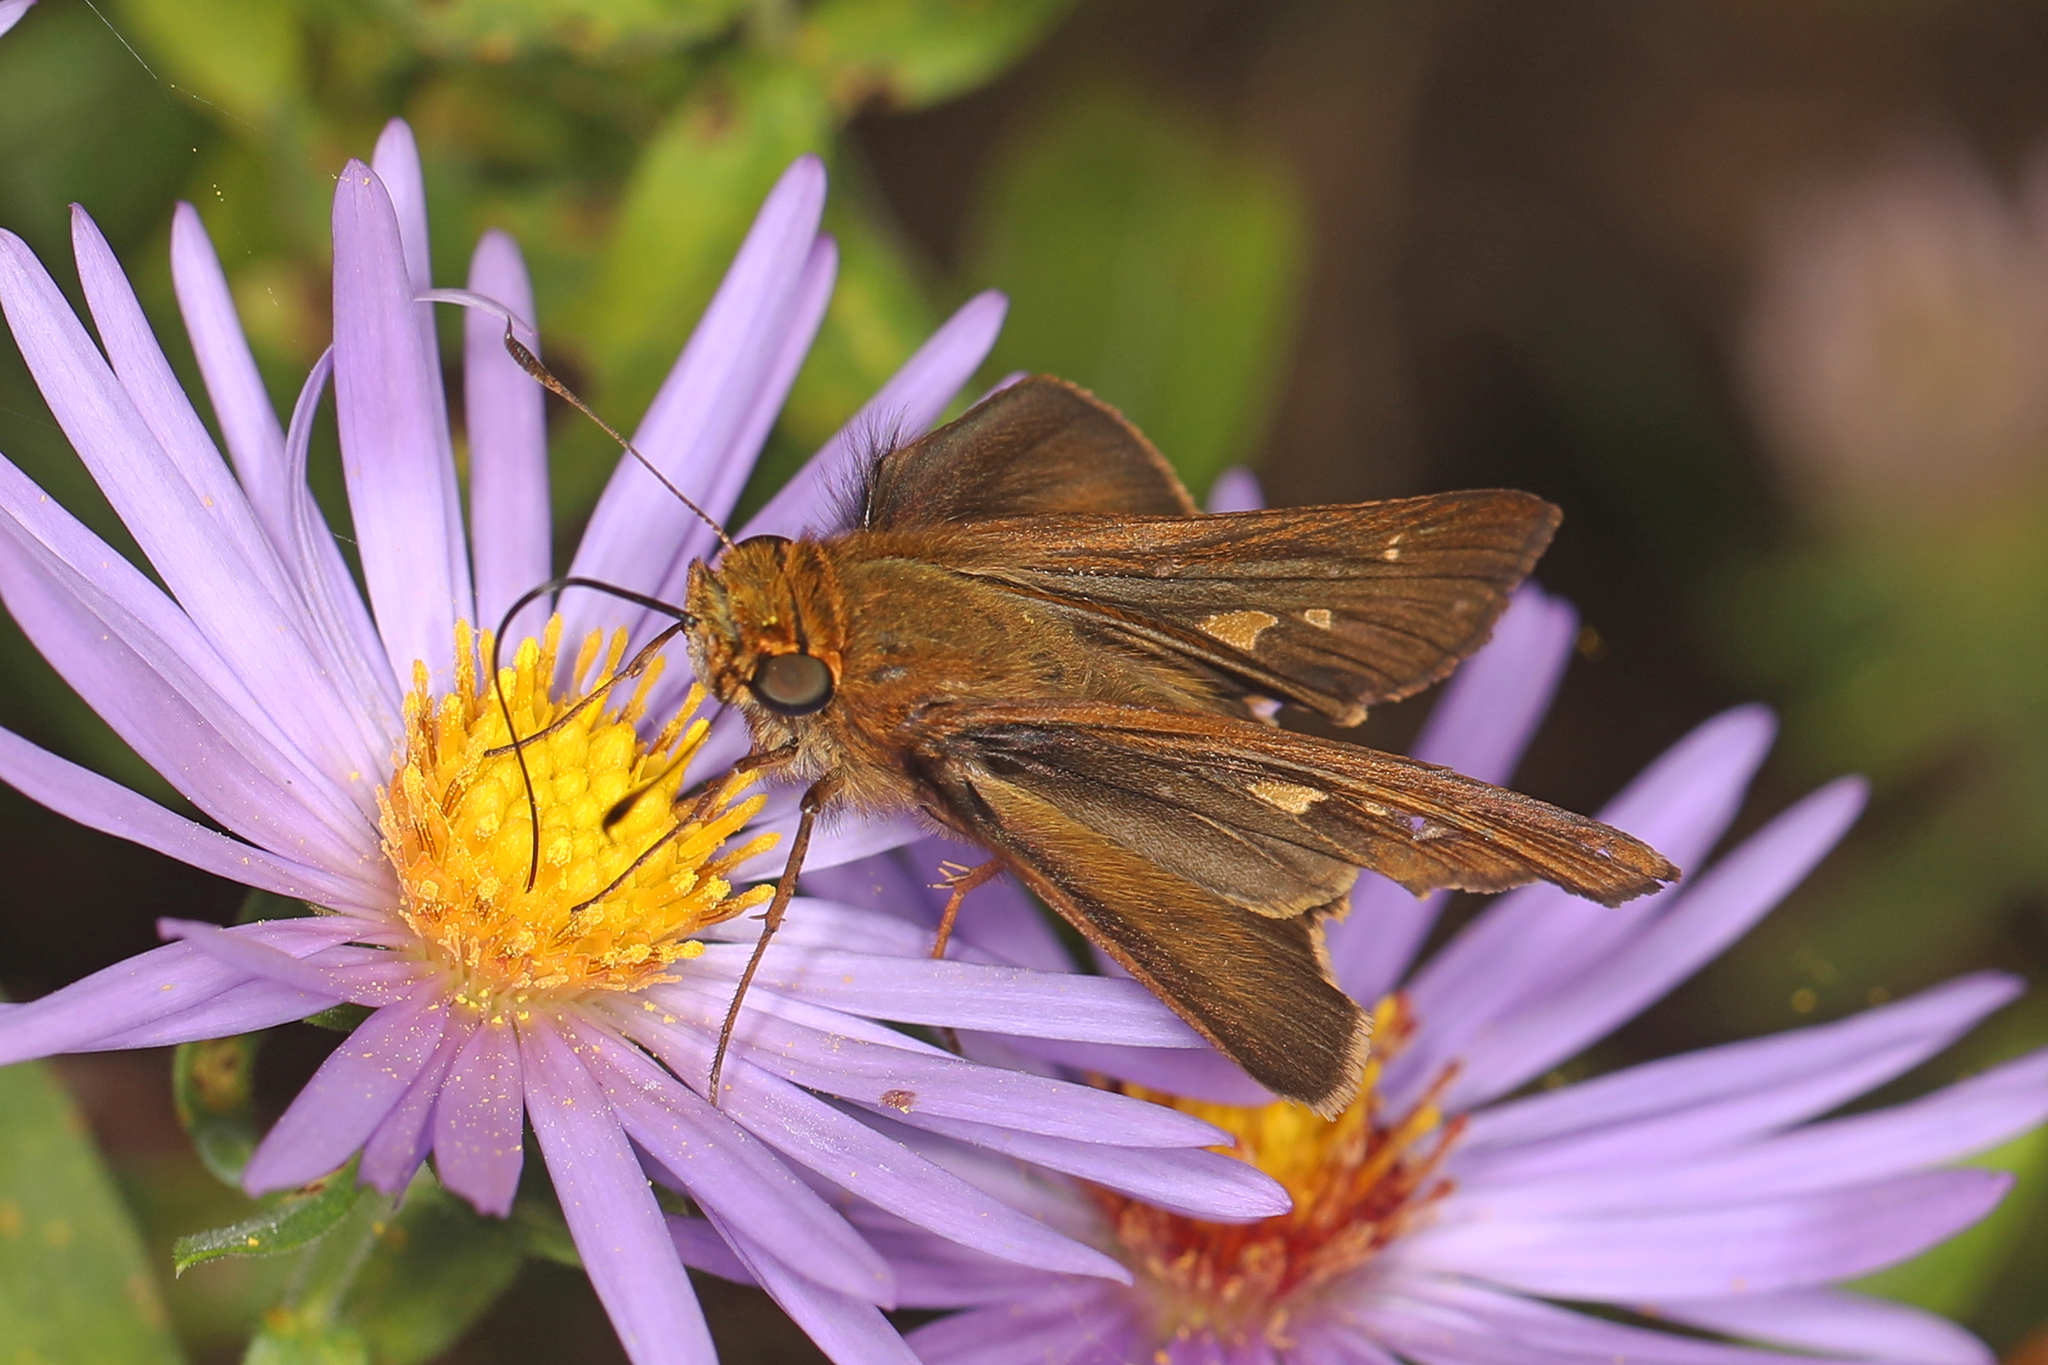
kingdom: Animalia
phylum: Arthropoda
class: Insecta
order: Lepidoptera
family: Hesperiidae
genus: Panoquina
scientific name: Panoquina ocola
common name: Ocola skipper
